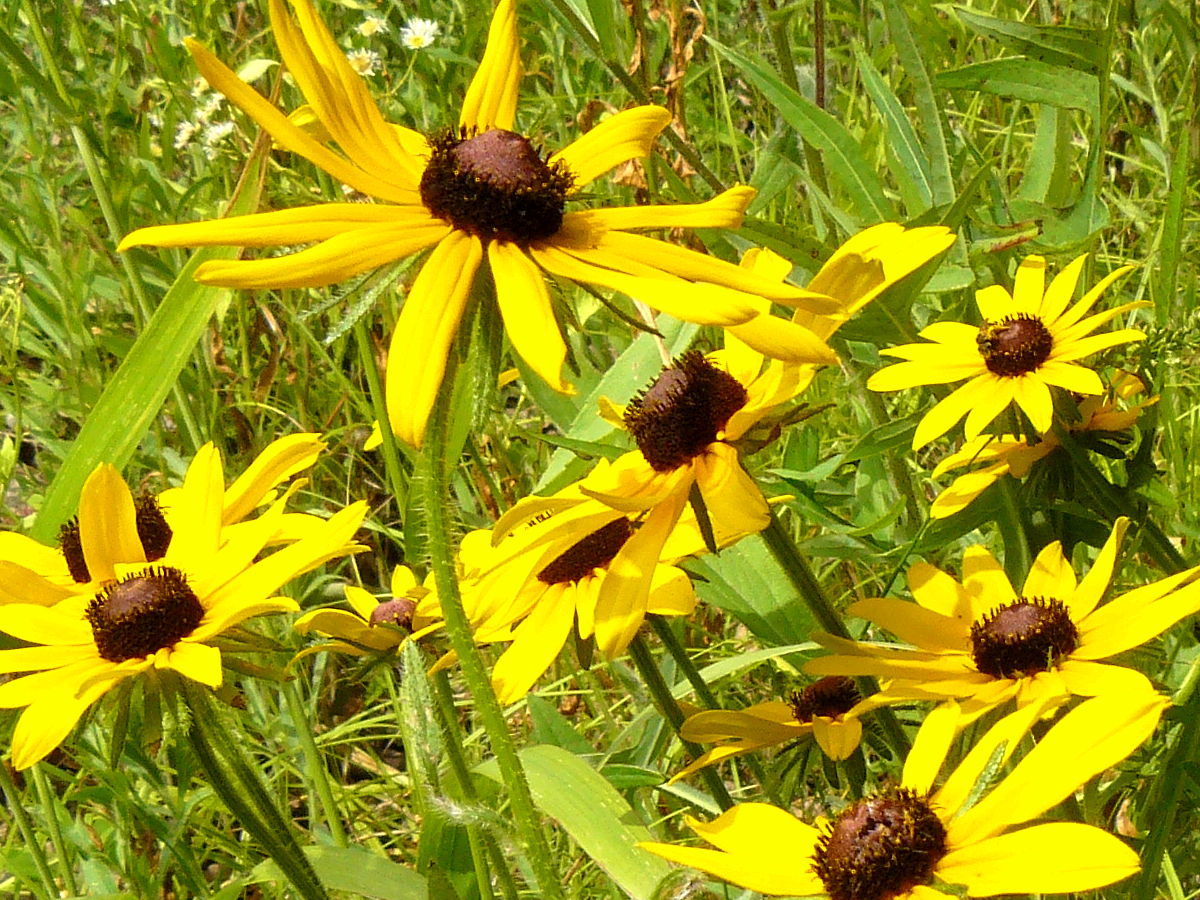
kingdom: Plantae
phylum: Tracheophyta
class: Magnoliopsida
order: Asterales
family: Asteraceae
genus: Rudbeckia
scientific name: Rudbeckia hirta
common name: Black-eyed-susan
